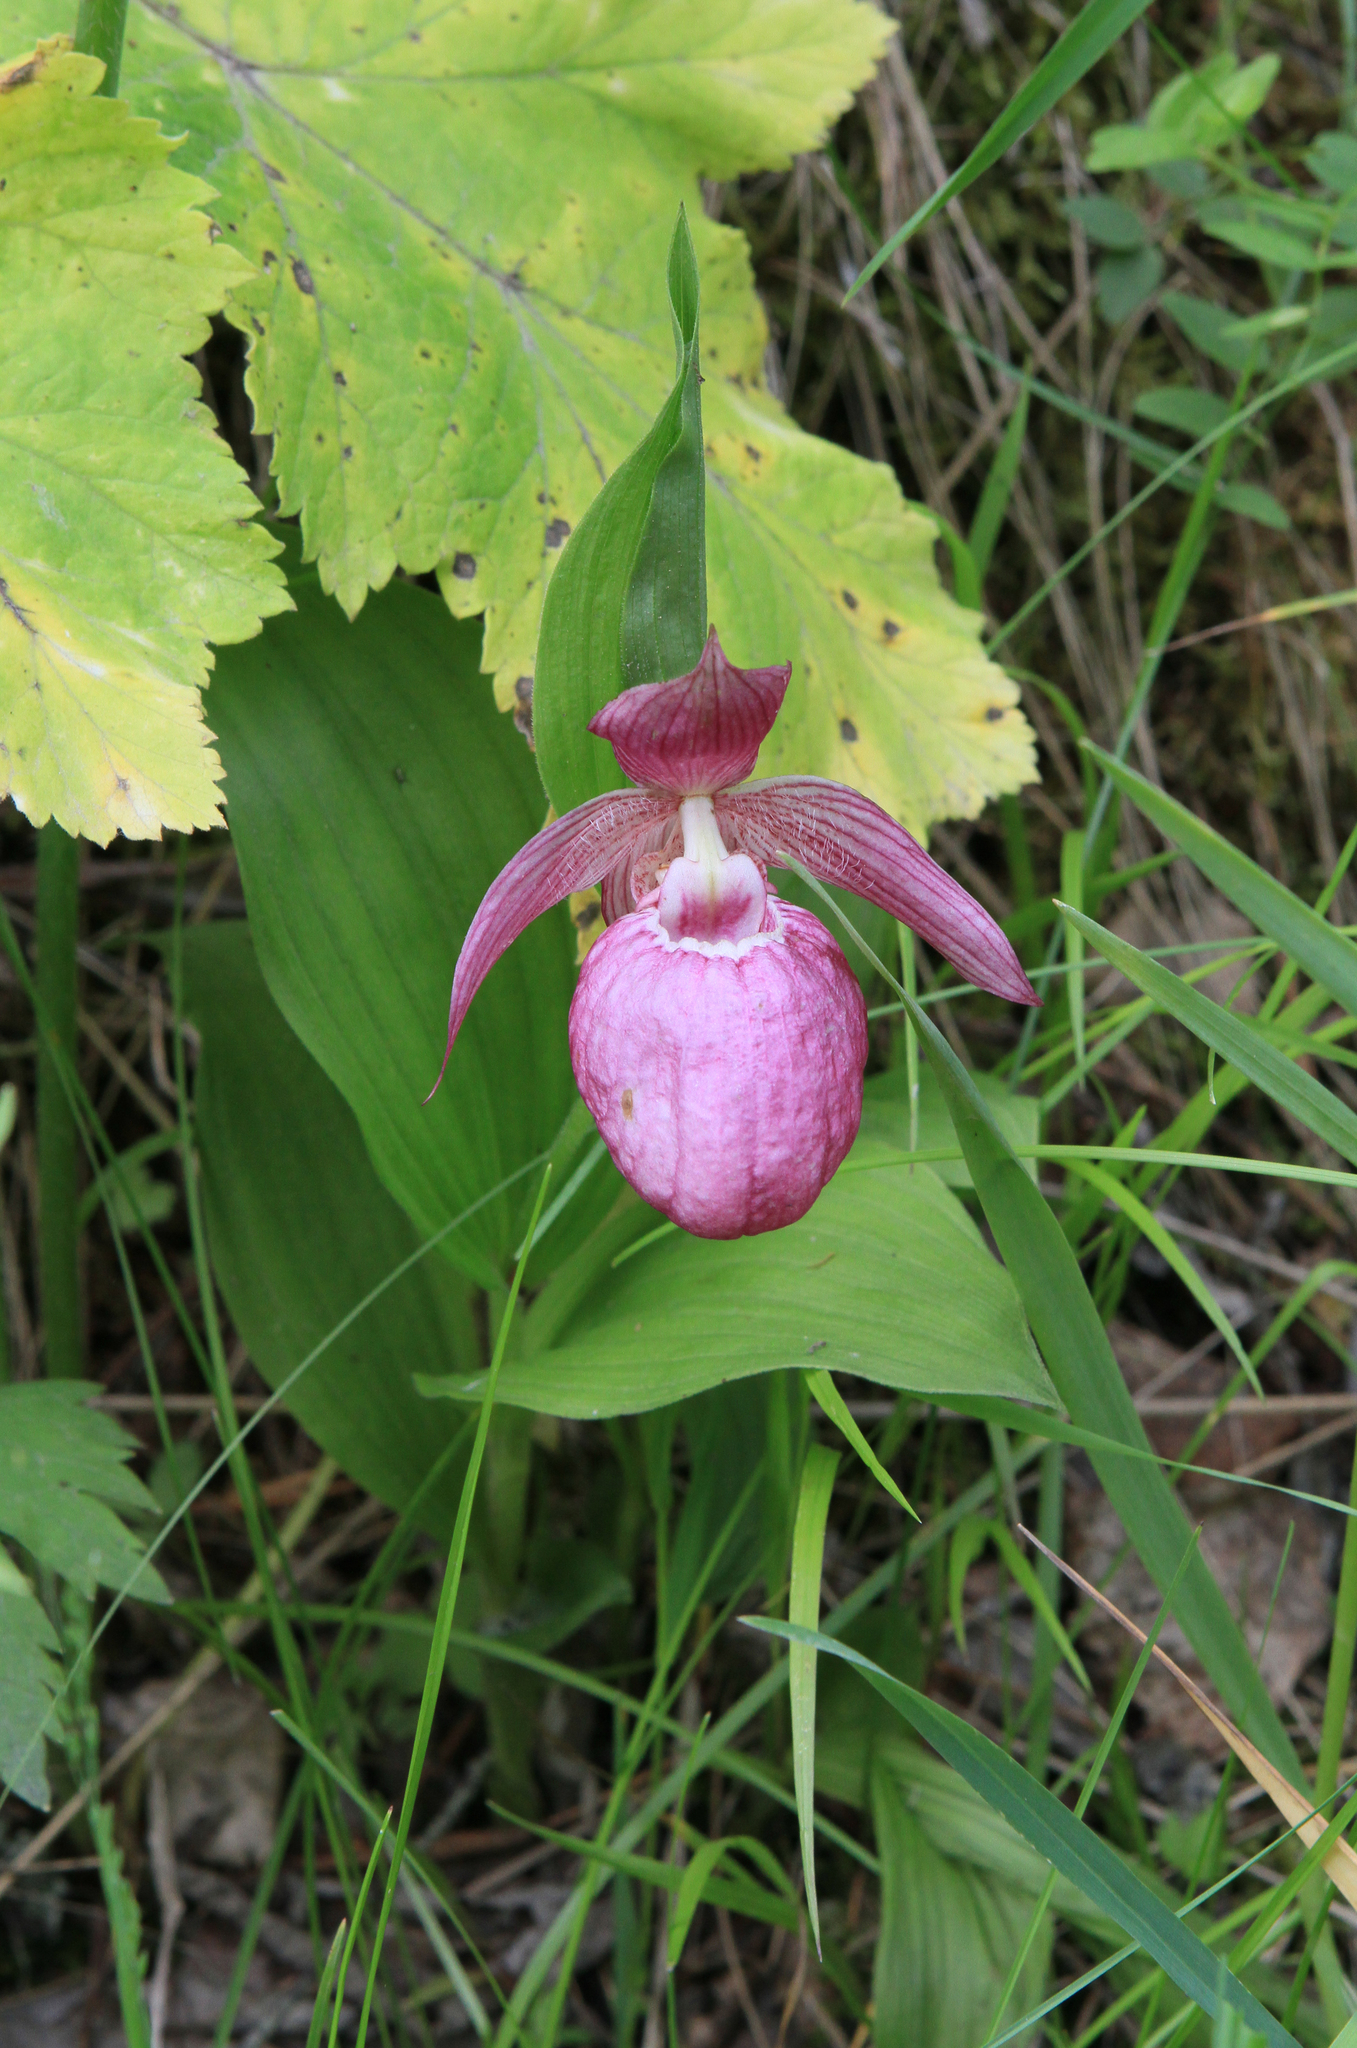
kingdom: Plantae
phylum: Tracheophyta
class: Liliopsida
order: Asparagales
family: Orchidaceae
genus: Cypripedium
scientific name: Cypripedium macranthos
